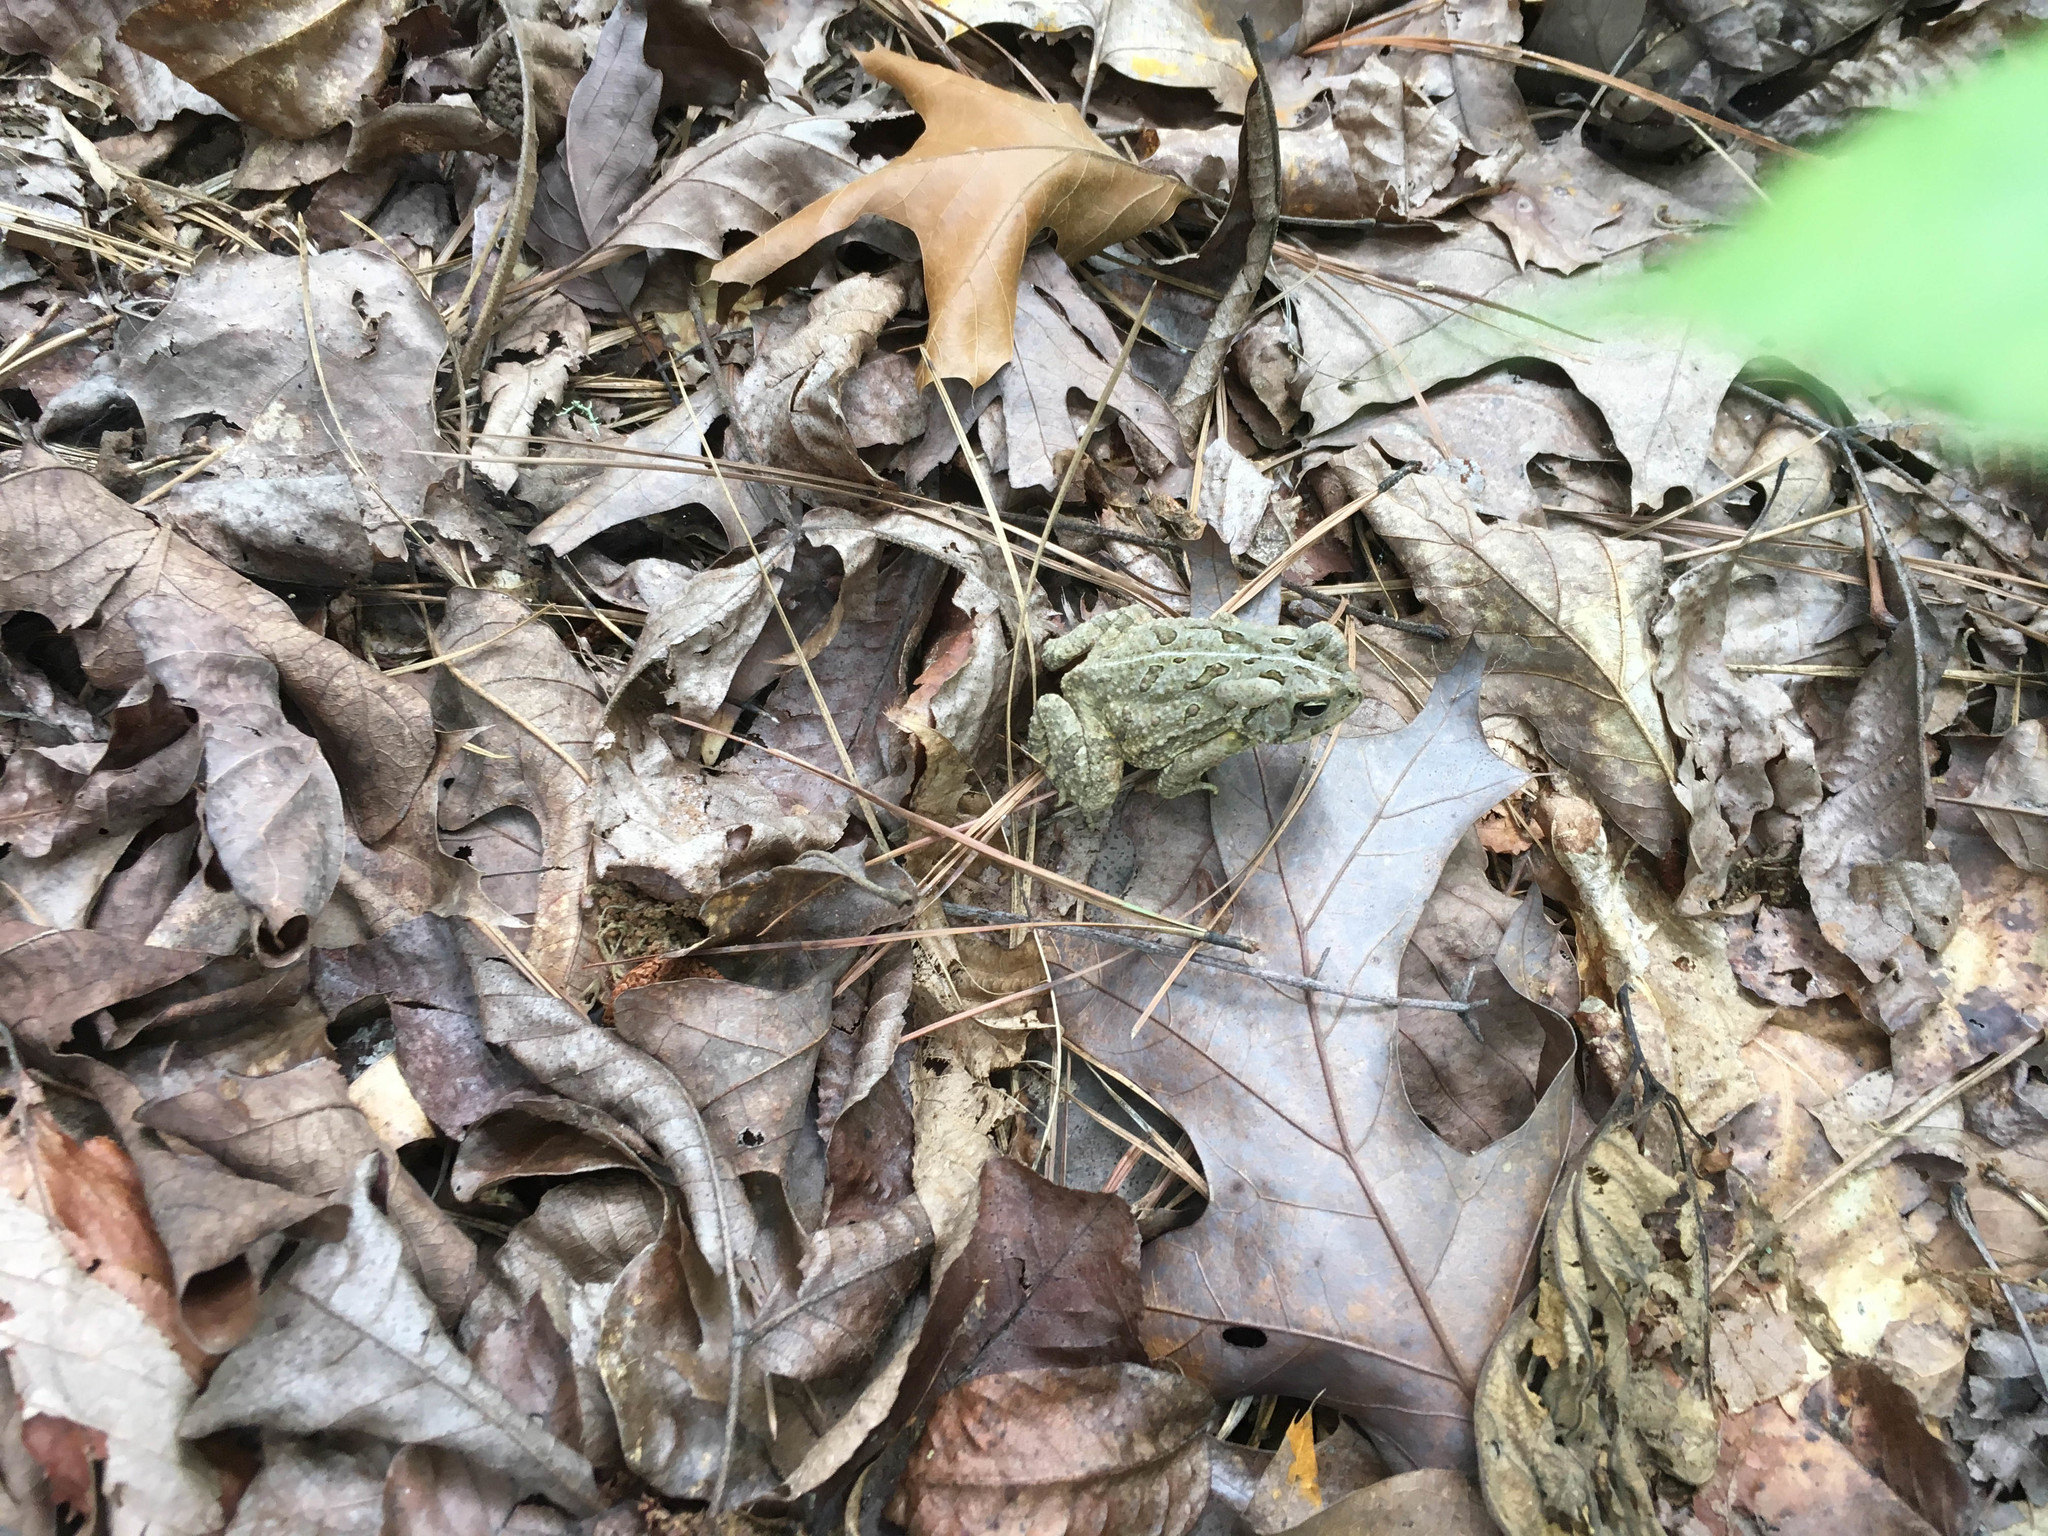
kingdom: Animalia
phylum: Chordata
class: Amphibia
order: Anura
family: Bufonidae
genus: Anaxyrus
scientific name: Anaxyrus fowleri
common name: Fowler's toad
